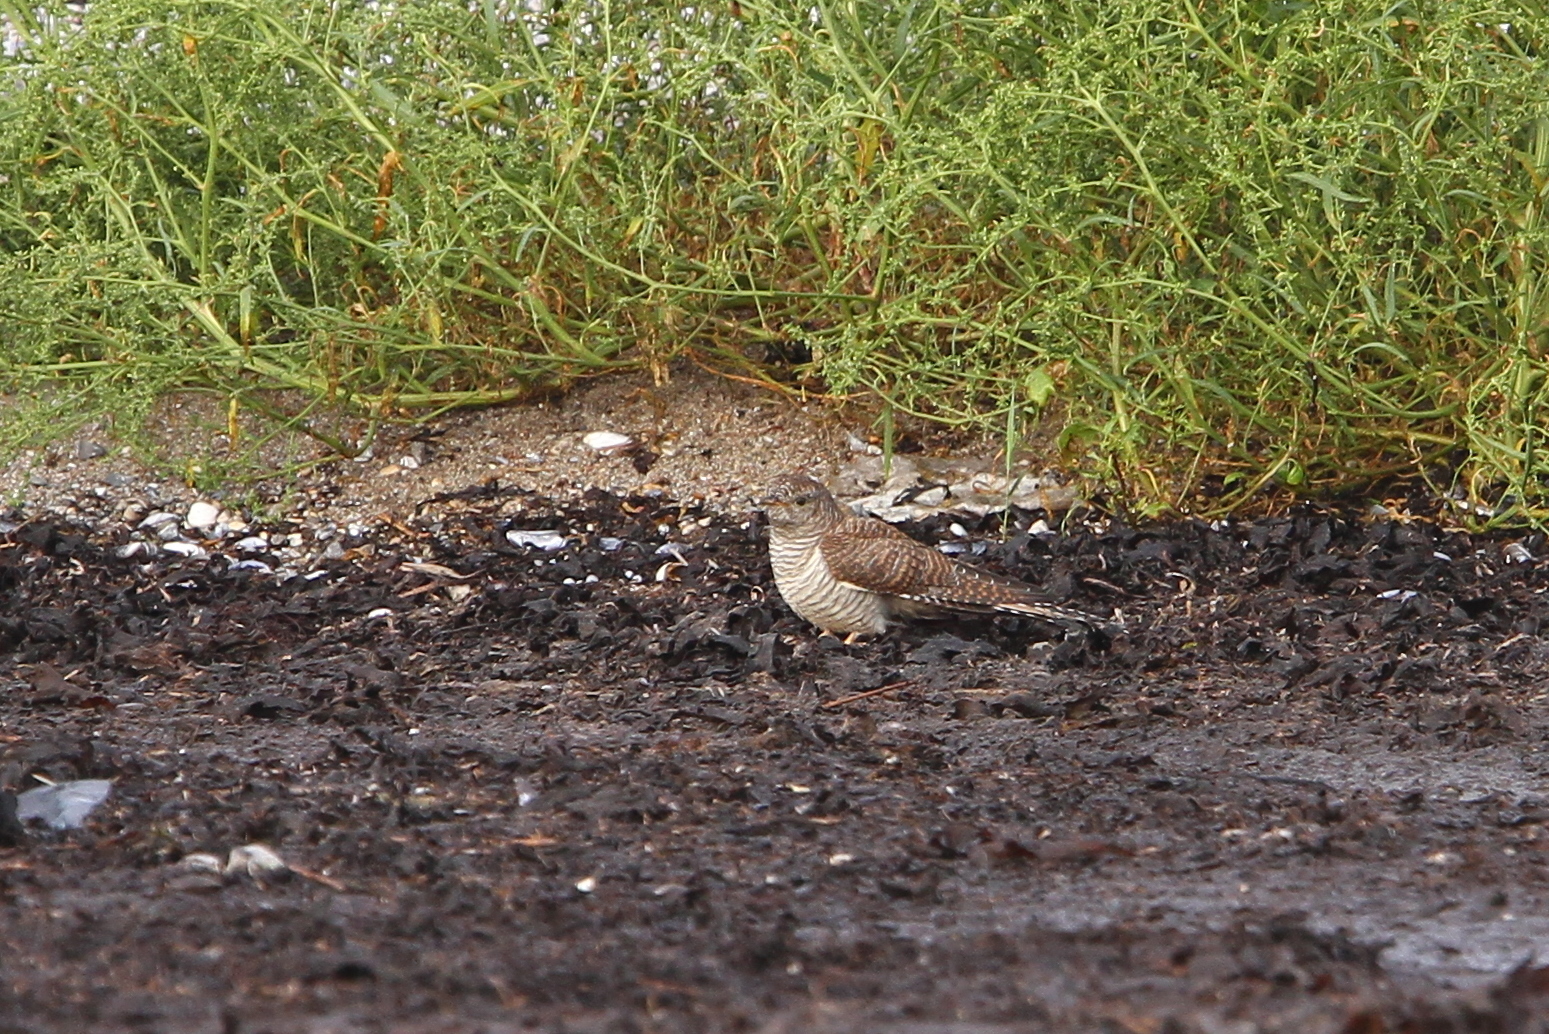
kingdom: Animalia
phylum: Chordata
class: Aves
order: Cuculiformes
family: Cuculidae
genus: Cuculus
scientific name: Cuculus canorus
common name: Common cuckoo
